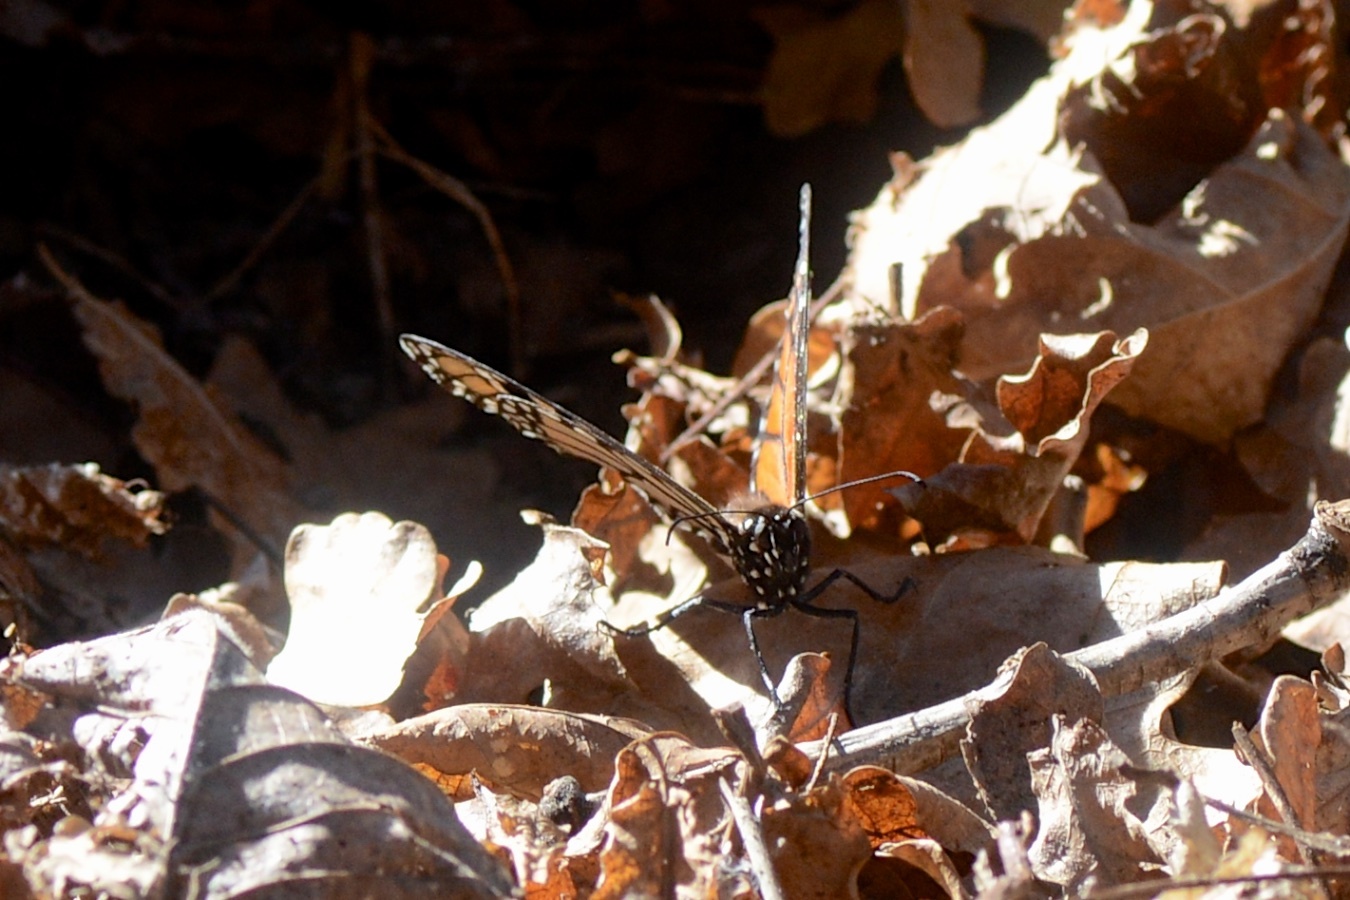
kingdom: Animalia
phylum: Arthropoda
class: Insecta
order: Lepidoptera
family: Nymphalidae
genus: Danaus
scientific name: Danaus plexippus
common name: Monarch
